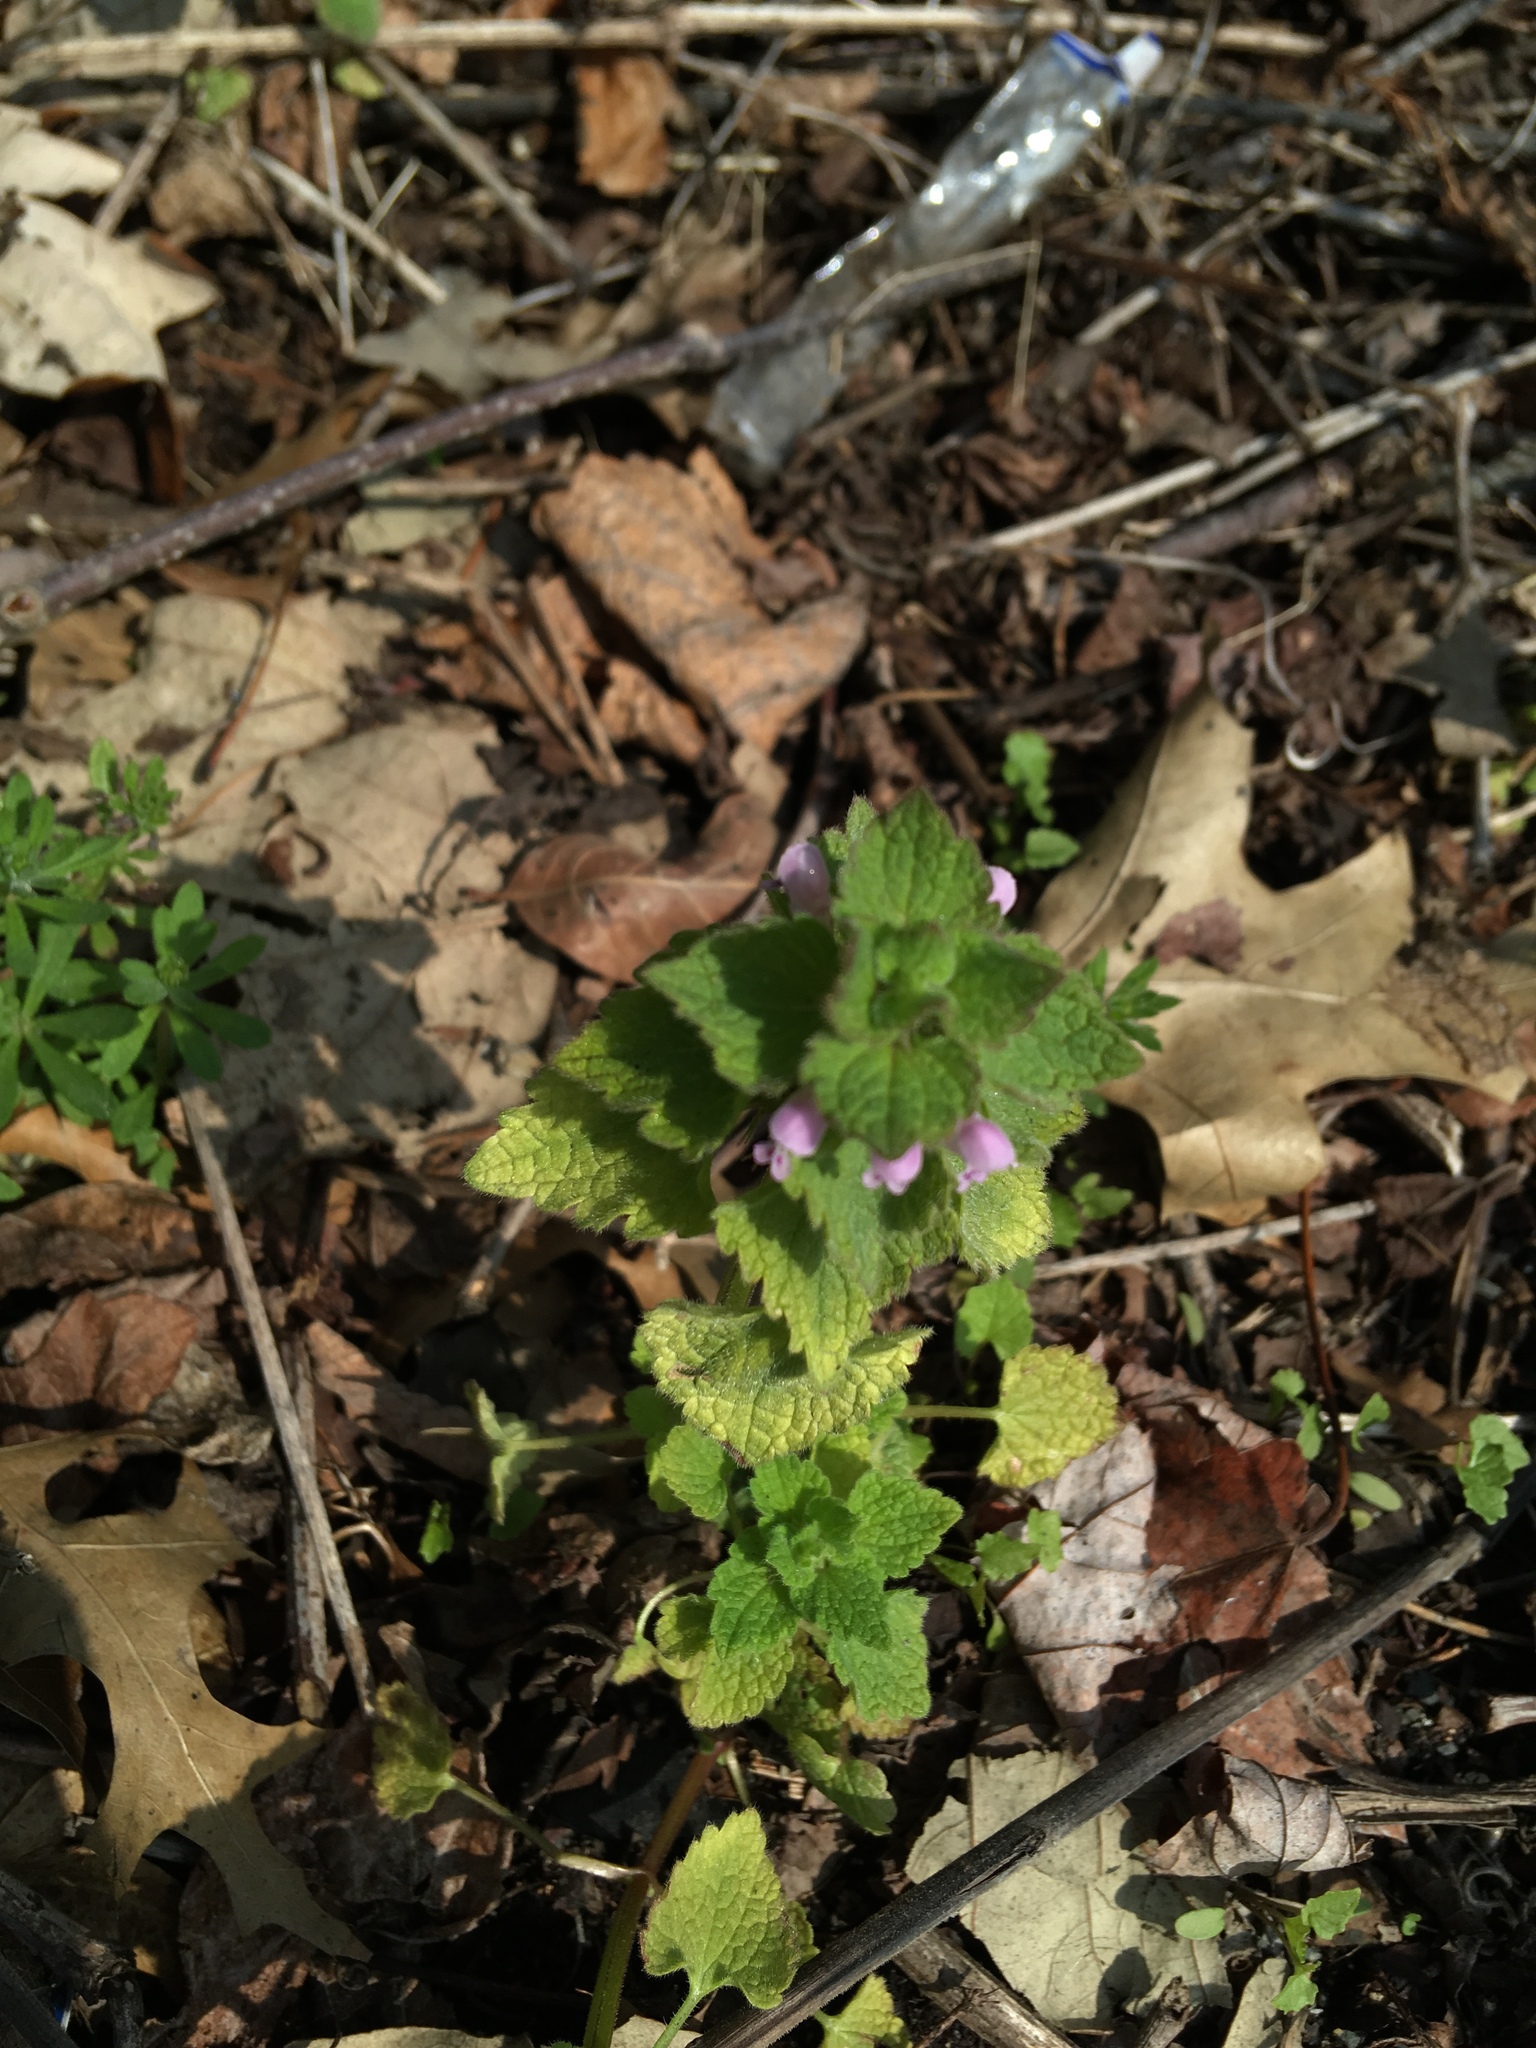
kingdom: Plantae
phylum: Tracheophyta
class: Magnoliopsida
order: Lamiales
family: Lamiaceae
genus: Lamium
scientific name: Lamium purpureum
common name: Red dead-nettle
